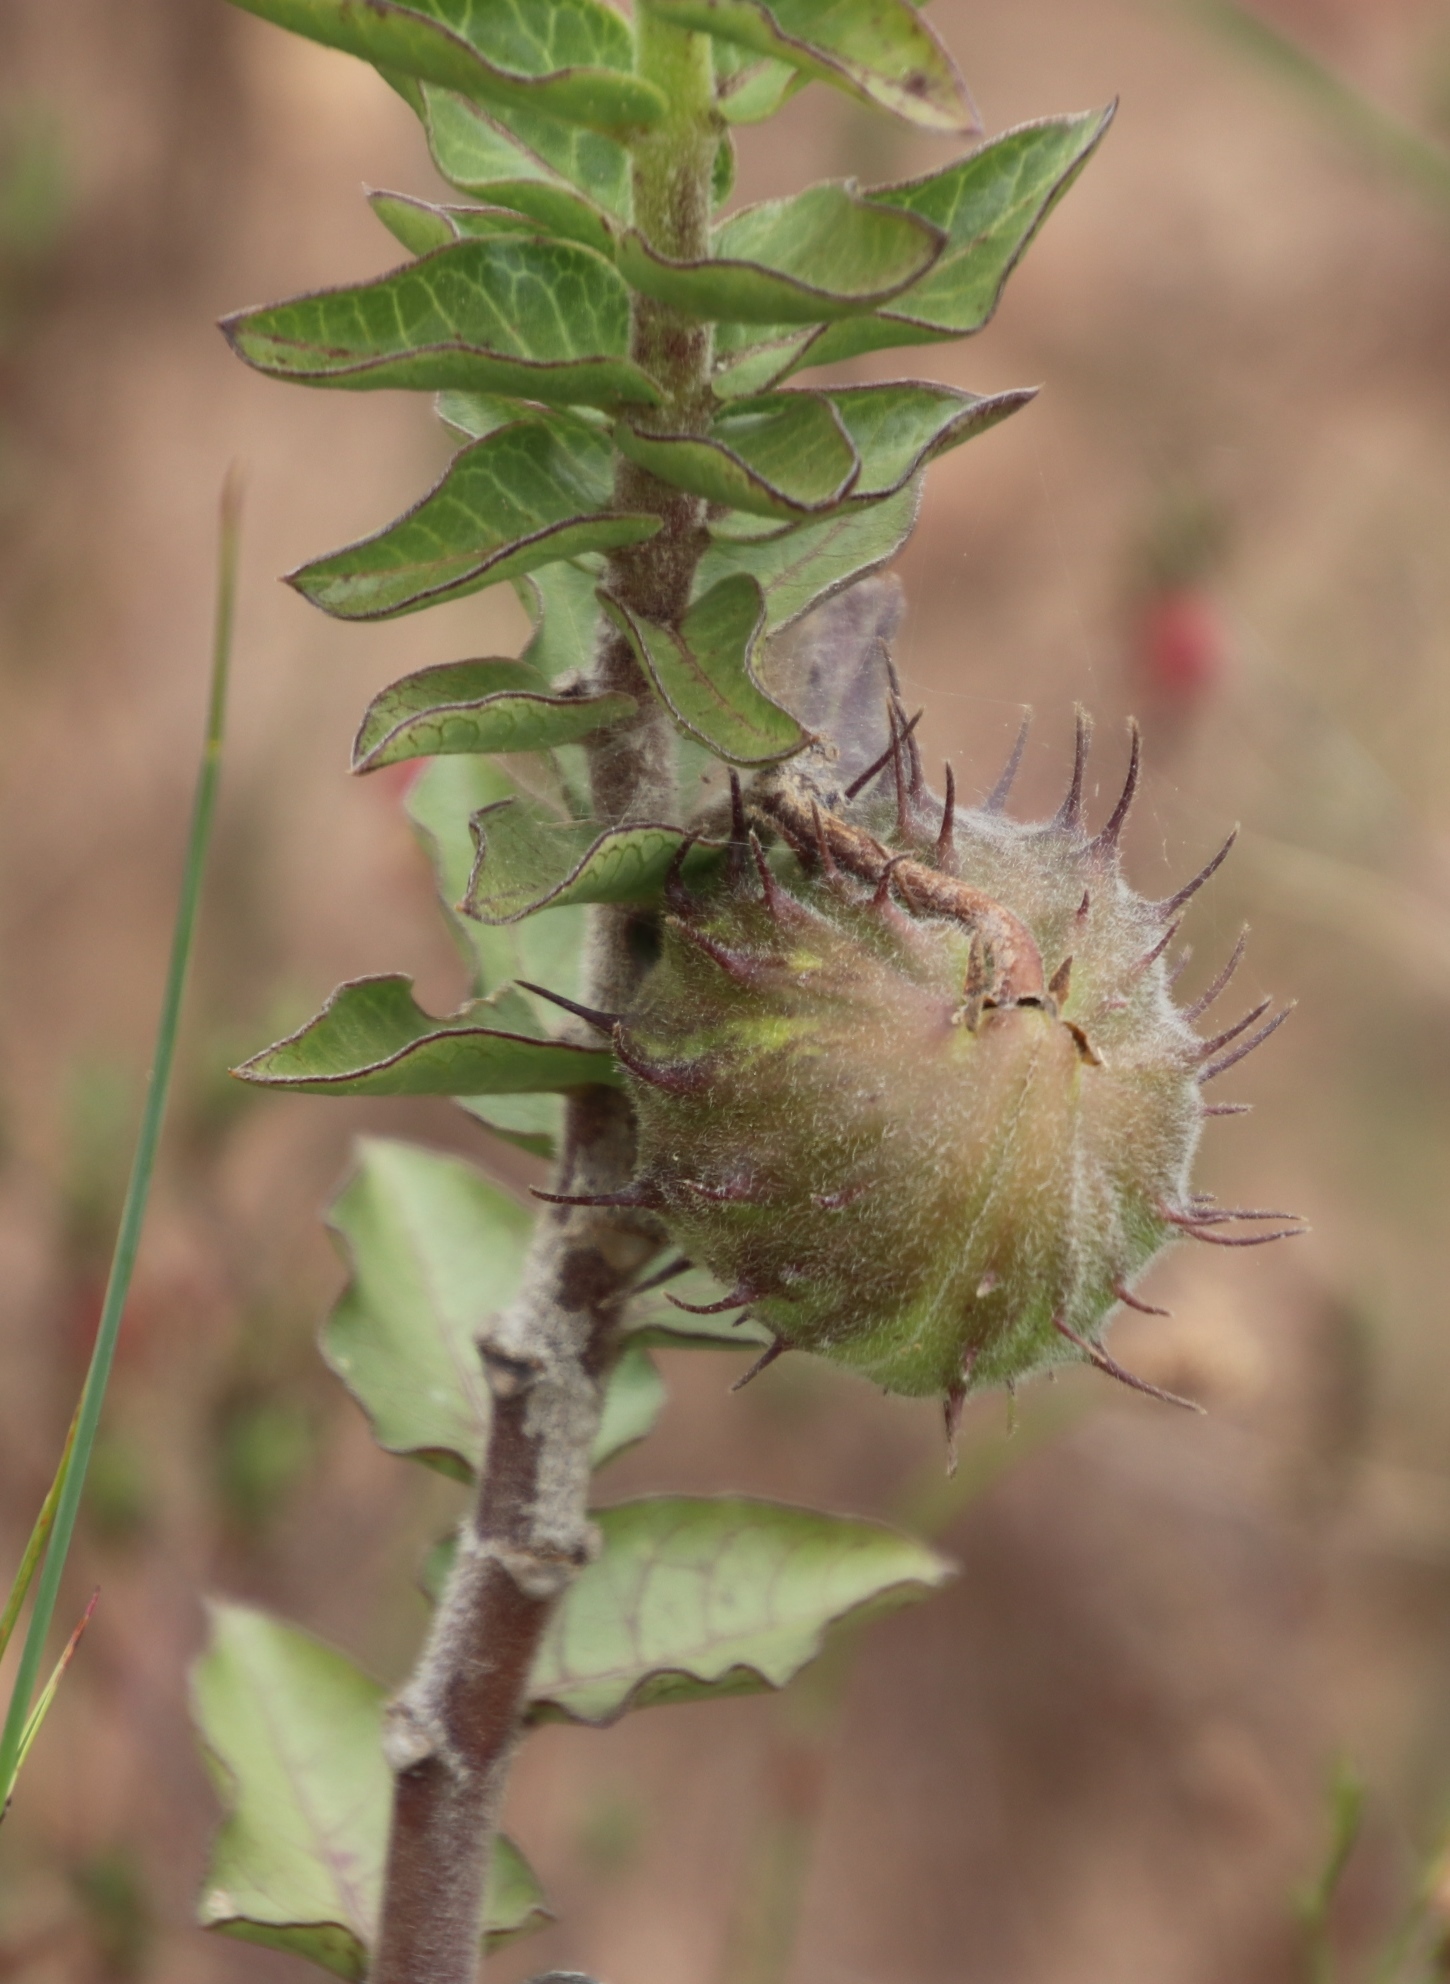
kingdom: Plantae
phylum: Tracheophyta
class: Magnoliopsida
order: Gentianales
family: Apocynaceae
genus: Gomphocarpus
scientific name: Gomphocarpus cancellatus
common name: Wild cotton
